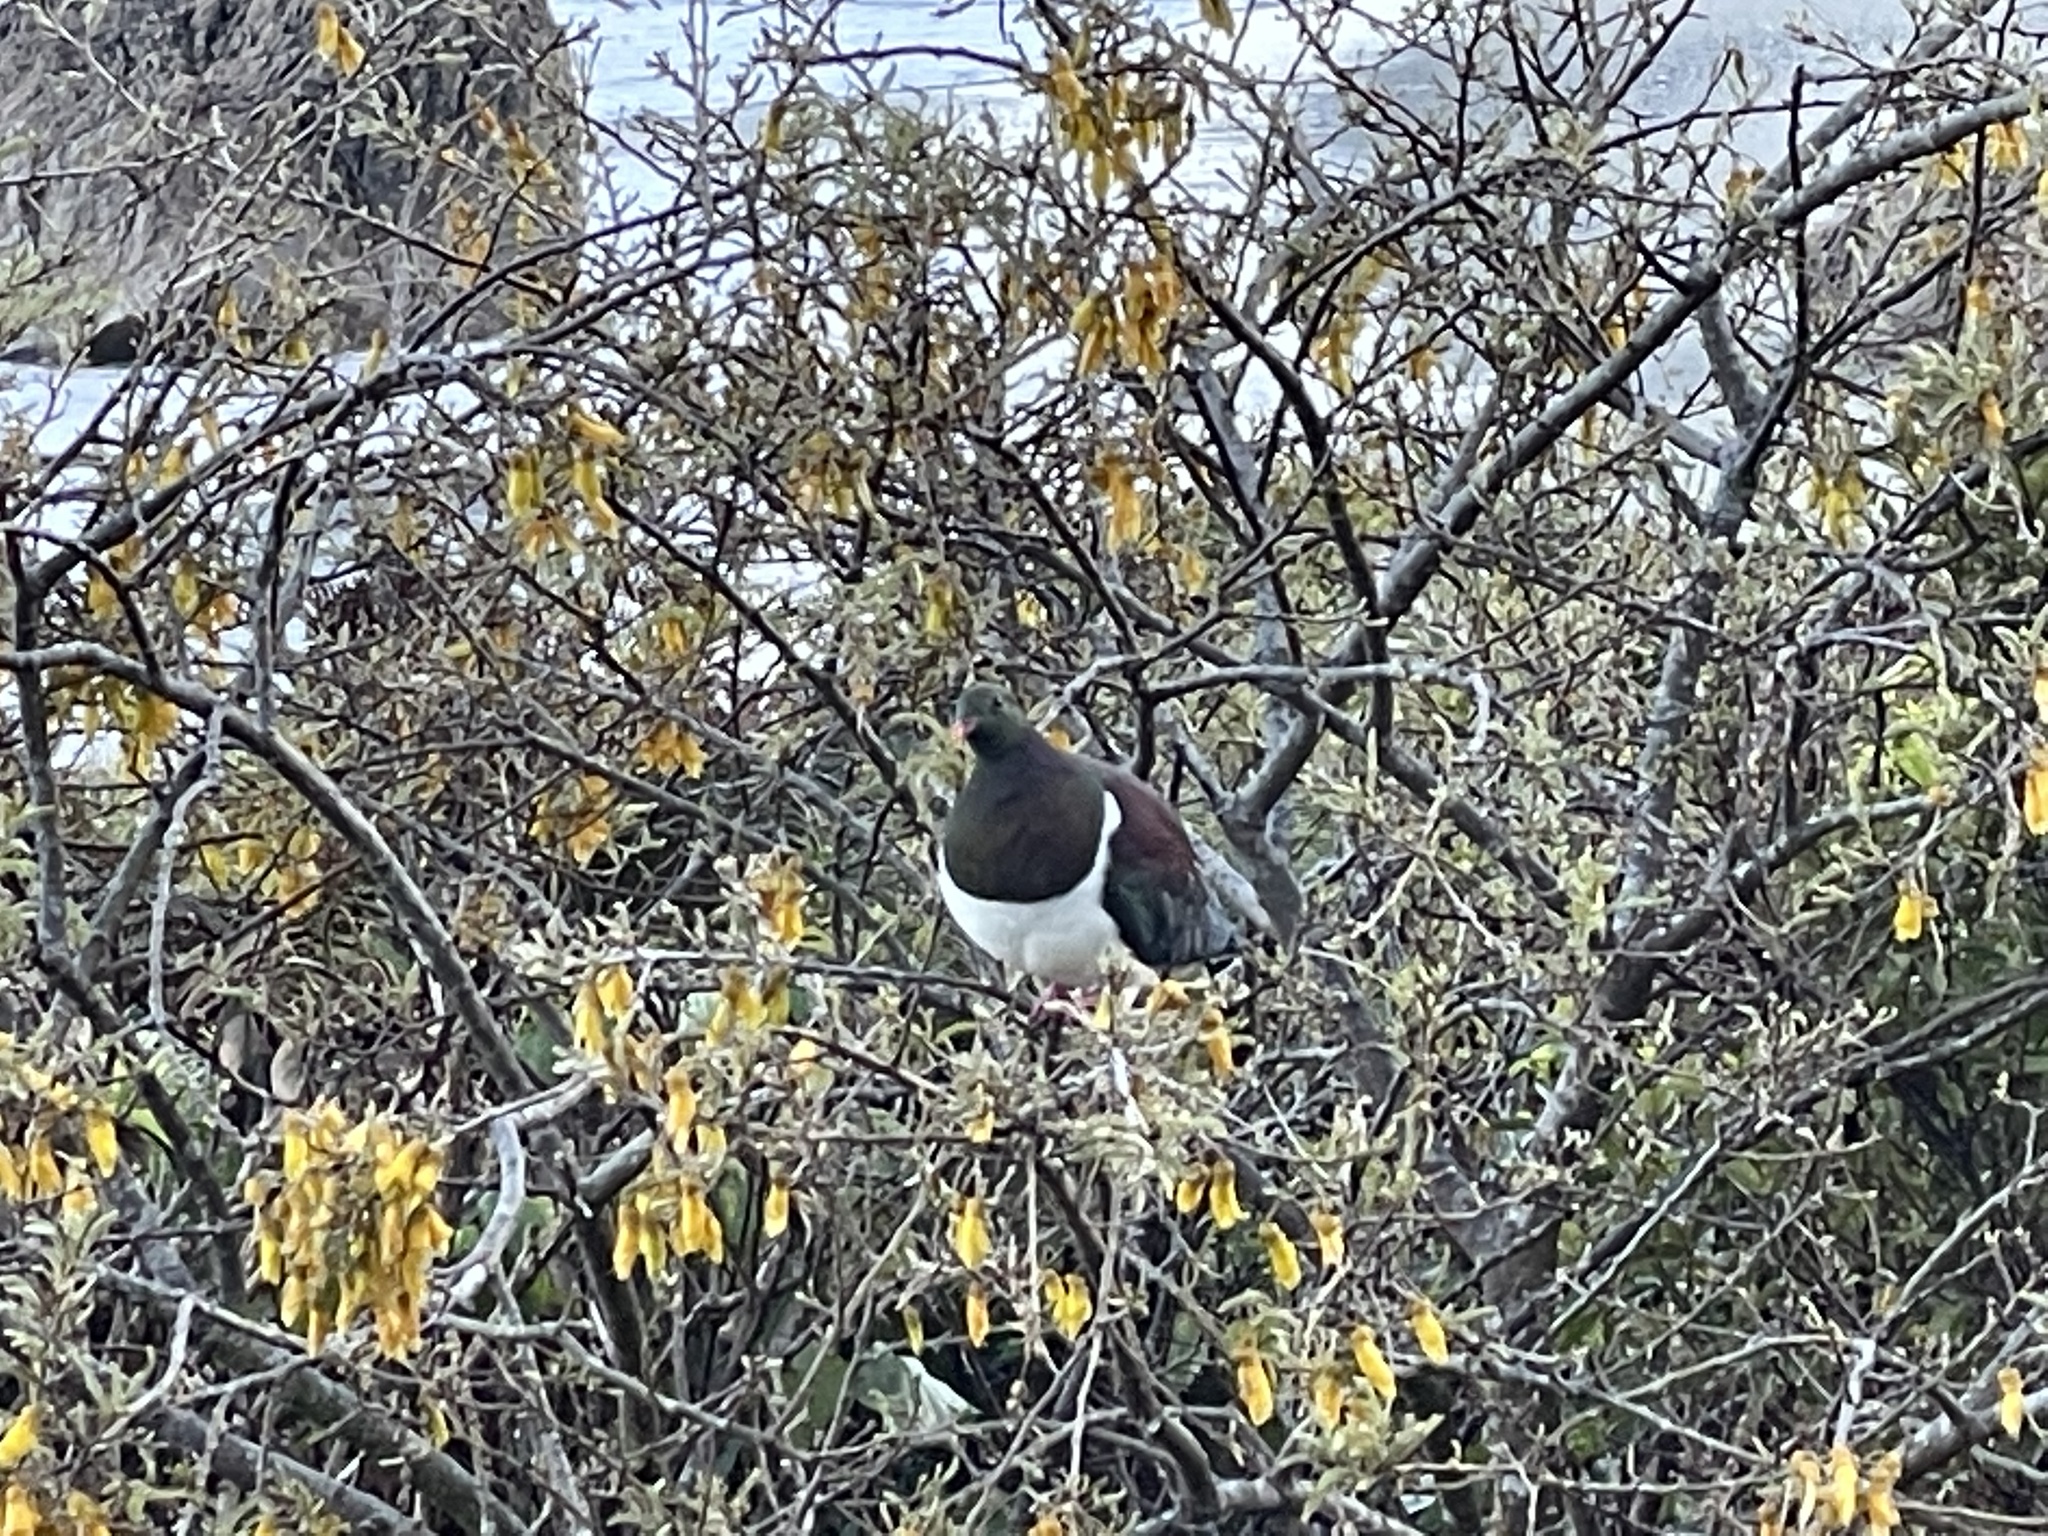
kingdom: Animalia
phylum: Chordata
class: Aves
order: Columbiformes
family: Columbidae
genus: Hemiphaga
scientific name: Hemiphaga novaeseelandiae
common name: New zealand pigeon
